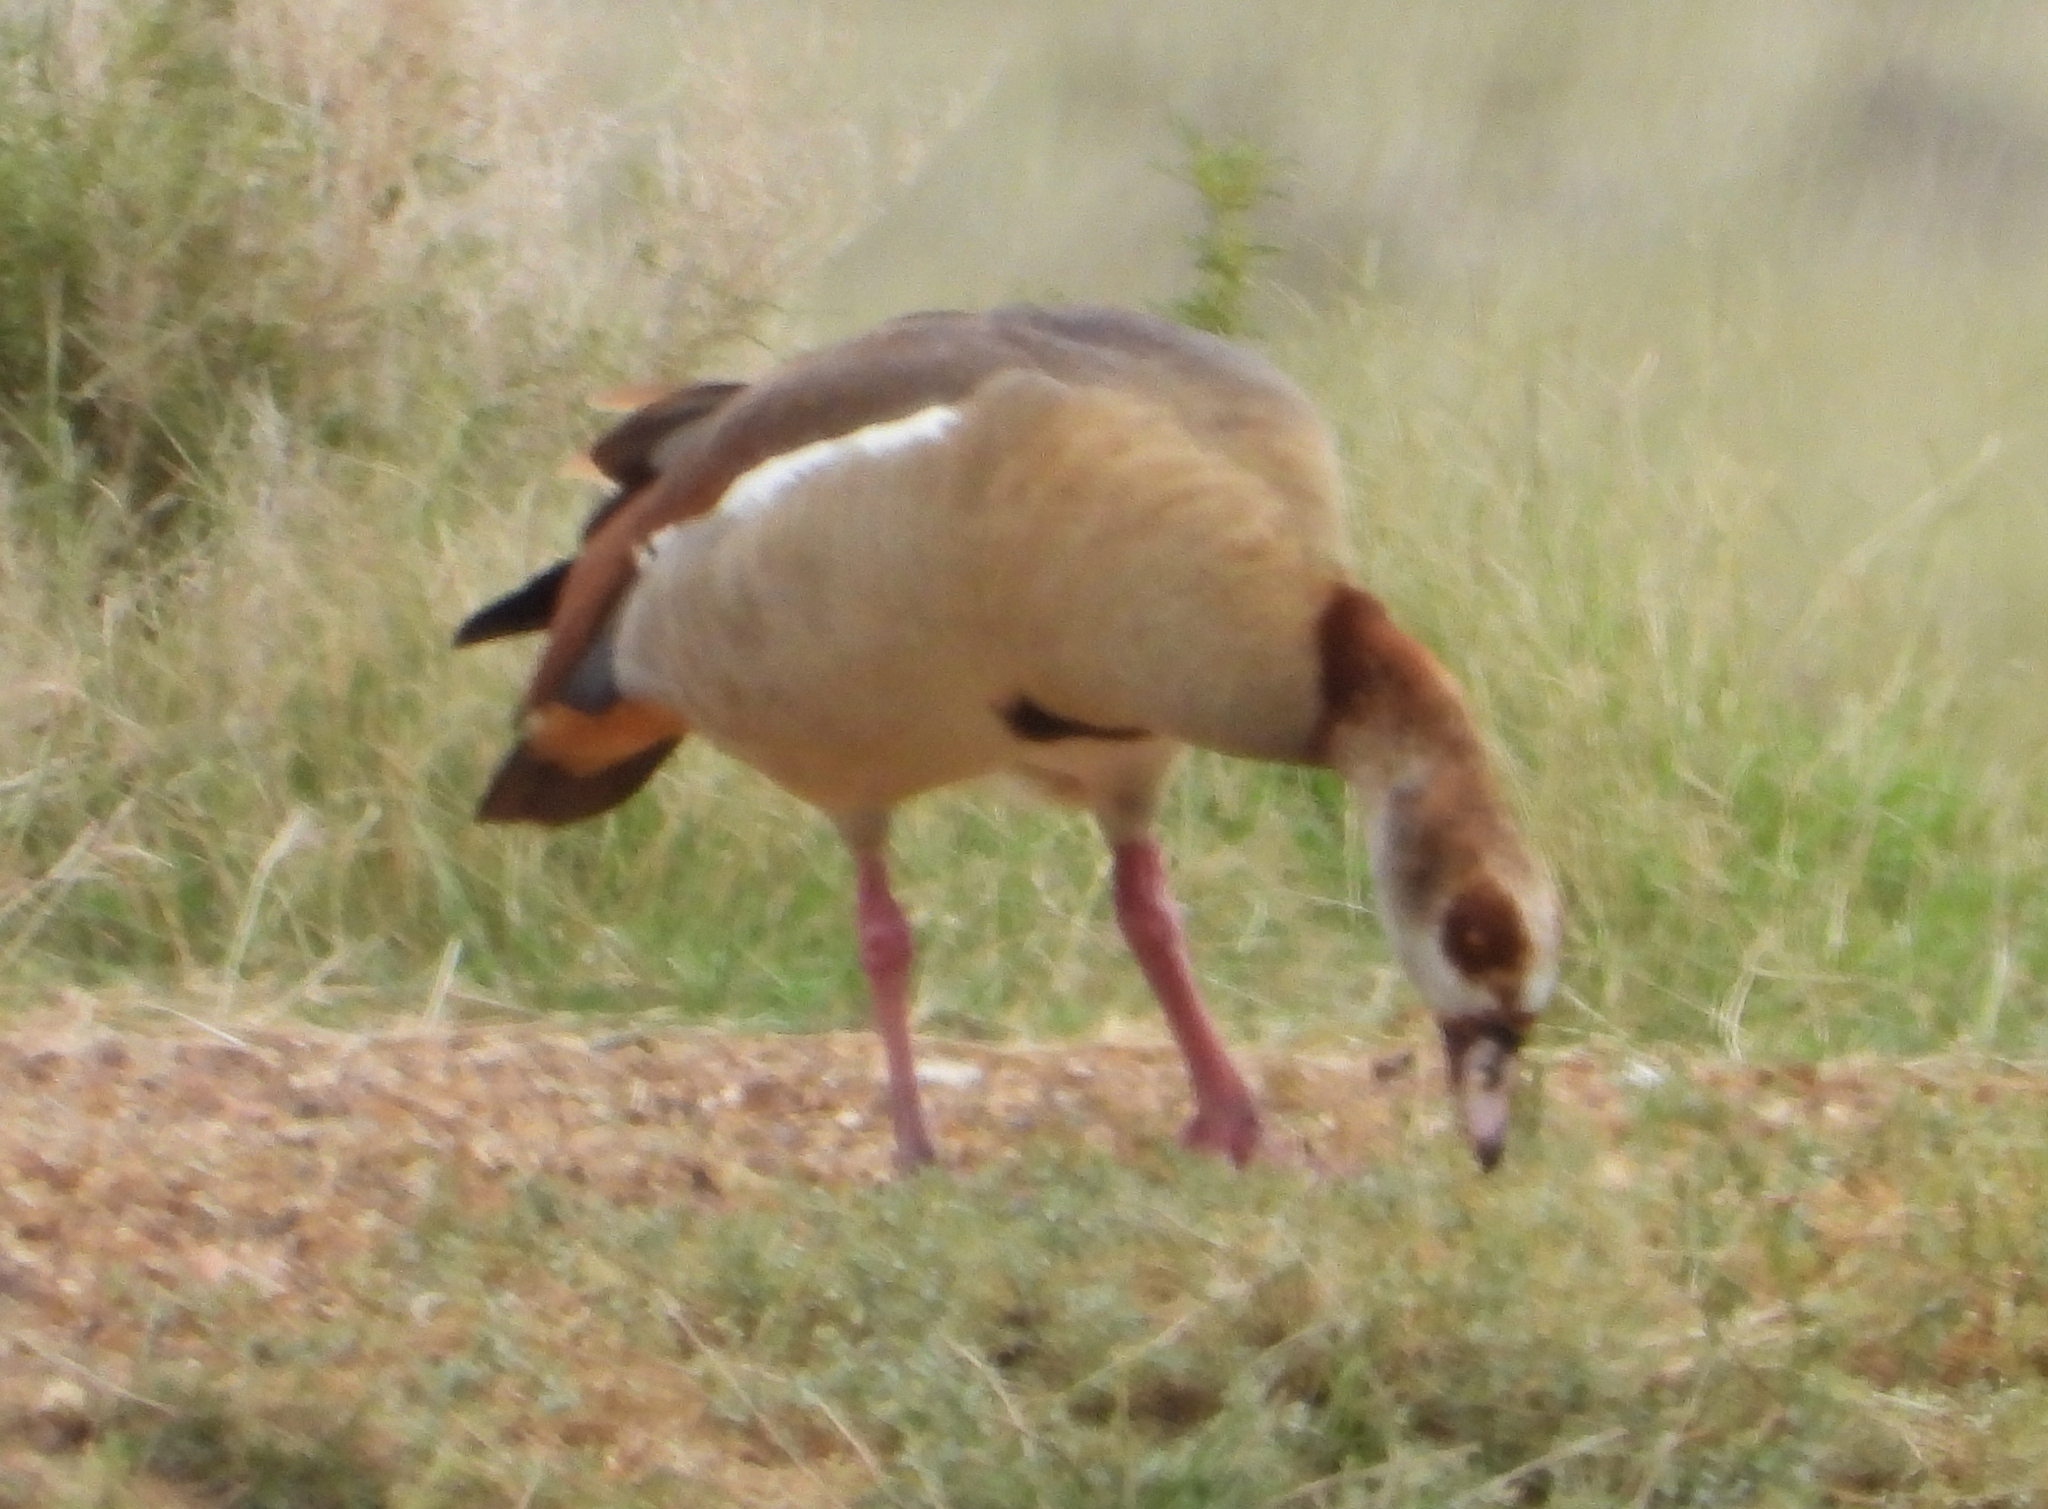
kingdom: Animalia
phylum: Chordata
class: Aves
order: Anseriformes
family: Anatidae
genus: Alopochen
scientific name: Alopochen aegyptiaca
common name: Egyptian goose
